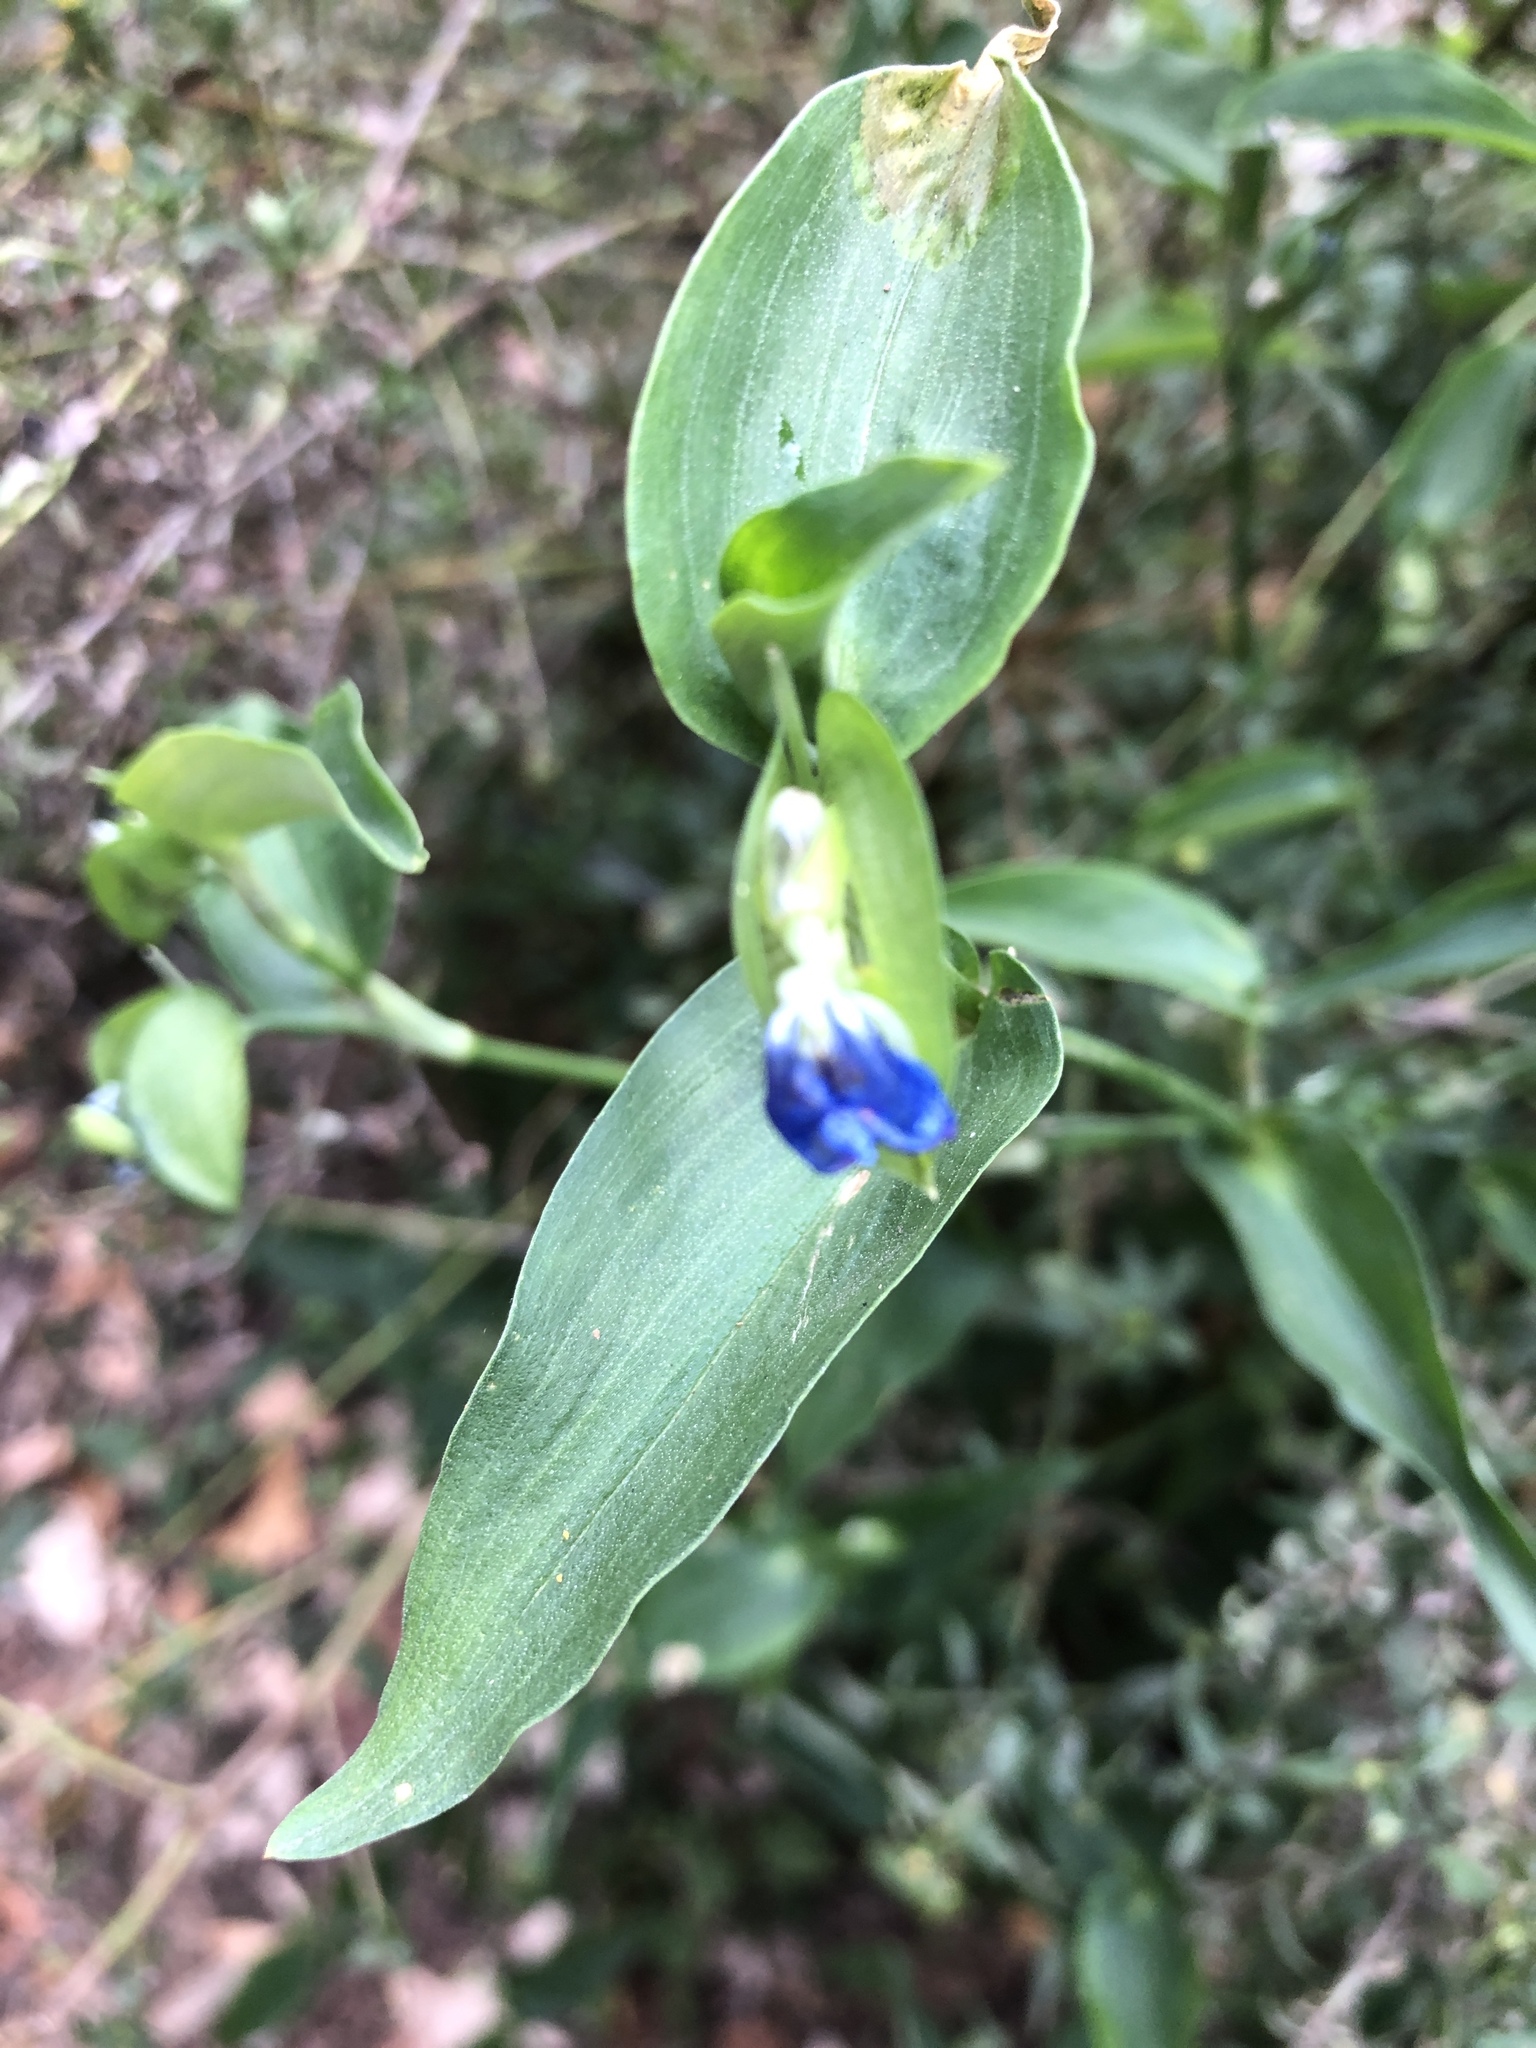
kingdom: Plantae
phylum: Tracheophyta
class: Liliopsida
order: Commelinales
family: Commelinaceae
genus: Commelina
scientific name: Commelina communis
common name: Asiatic dayflower
